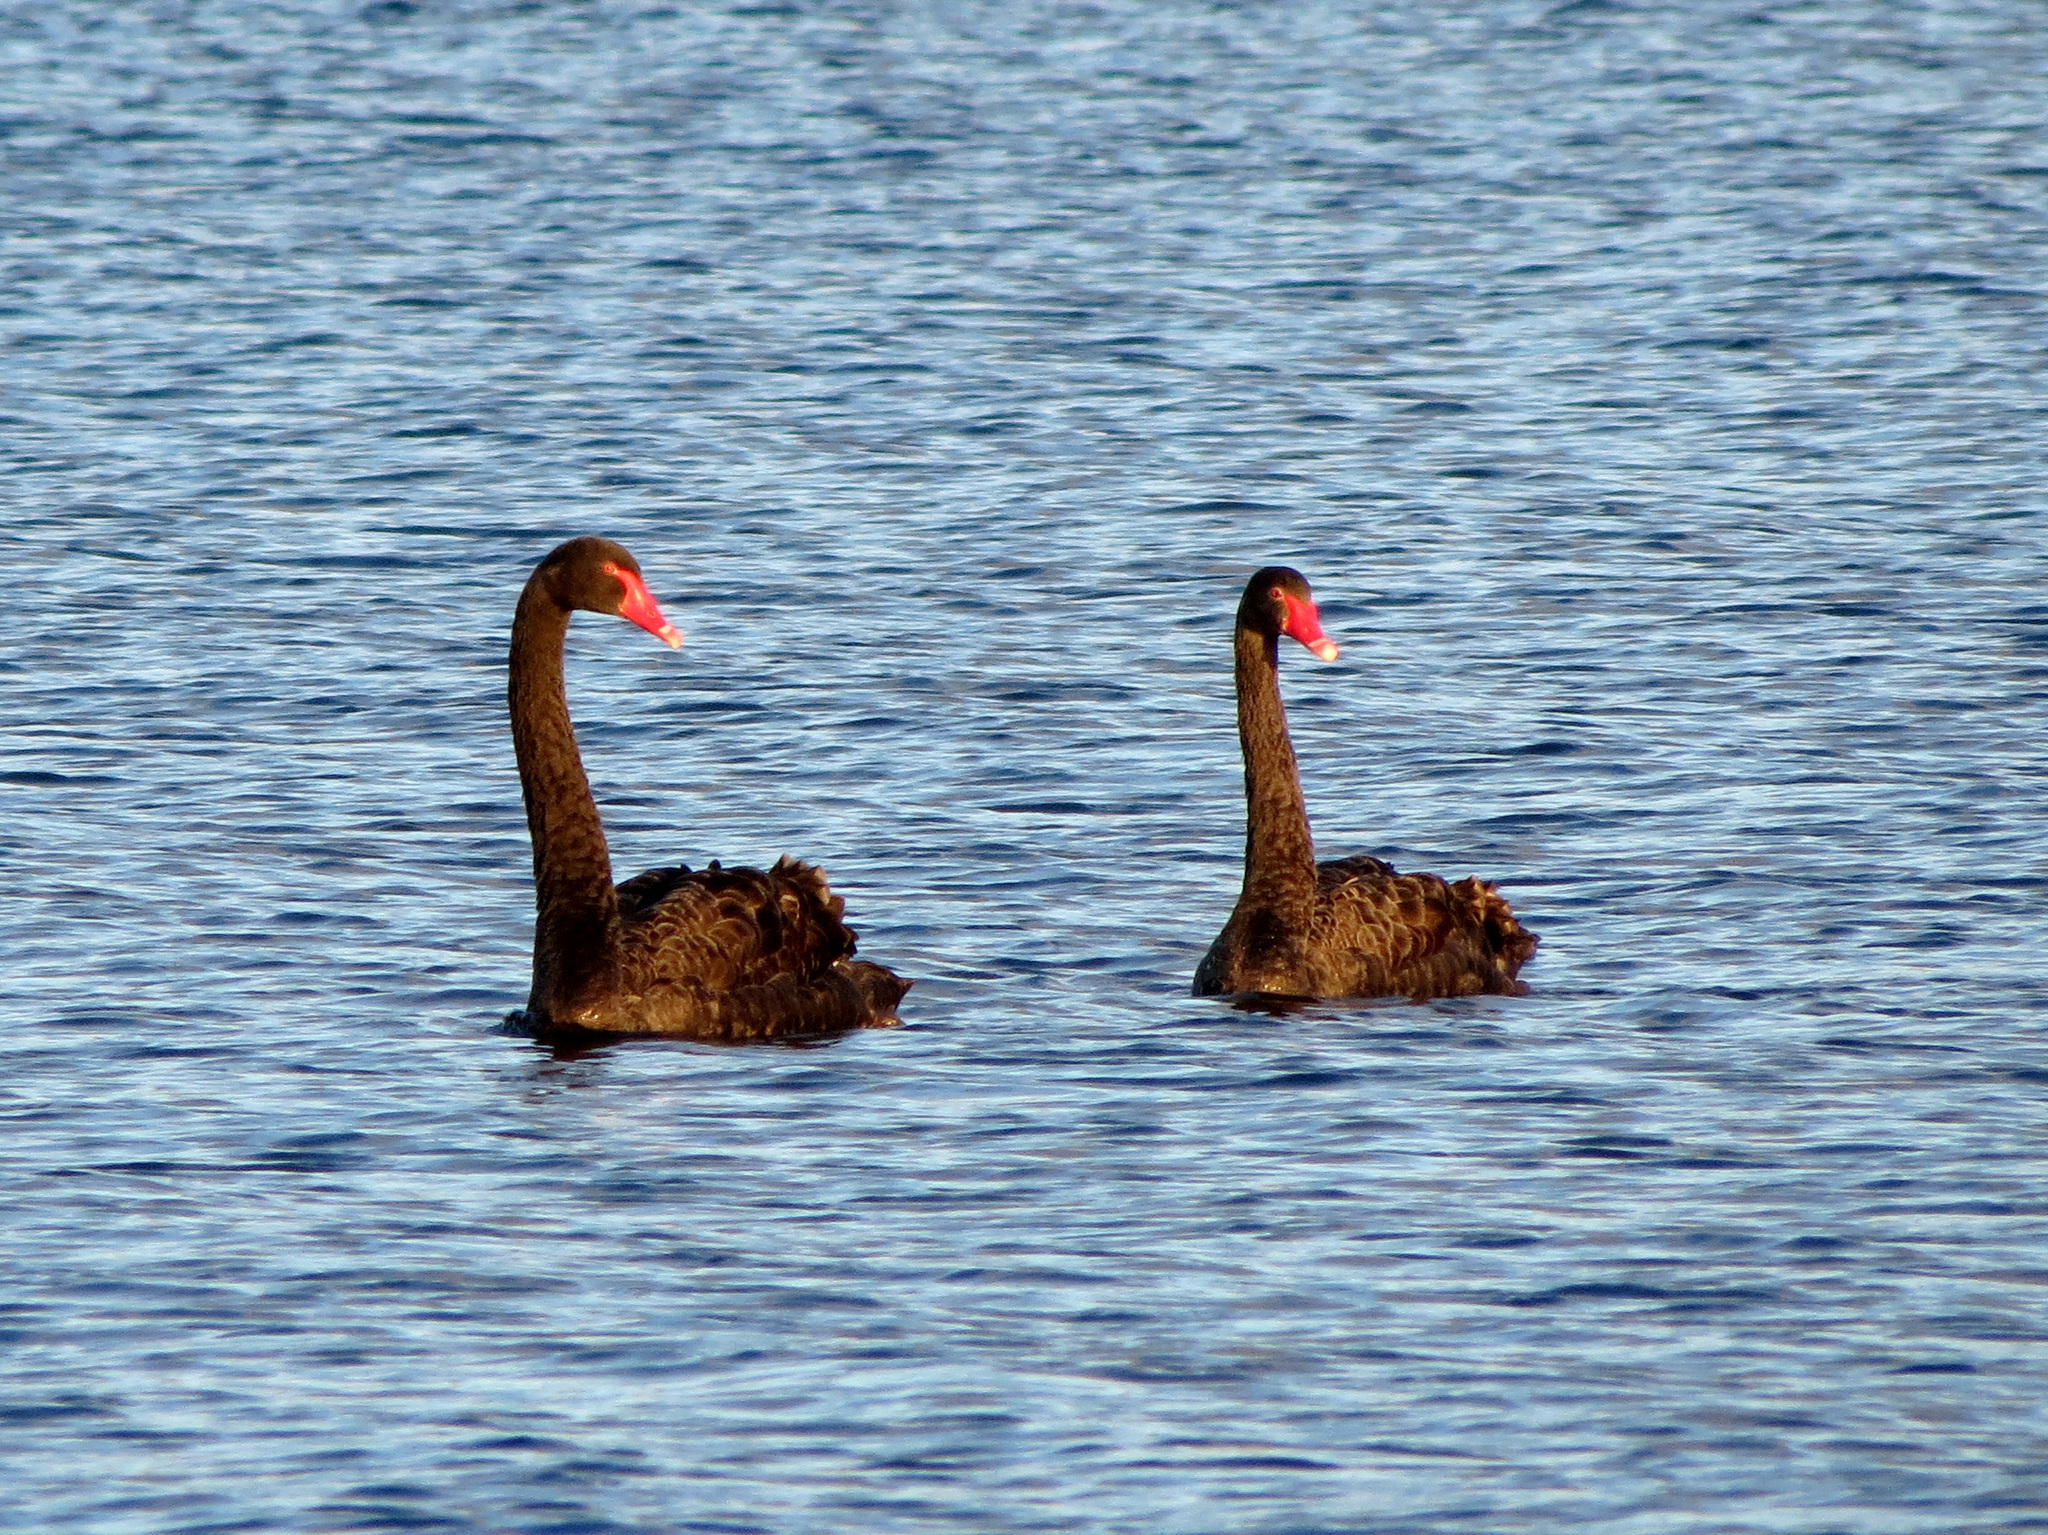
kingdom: Animalia
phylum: Chordata
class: Aves
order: Anseriformes
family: Anatidae
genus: Cygnus
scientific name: Cygnus atratus
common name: Black swan
